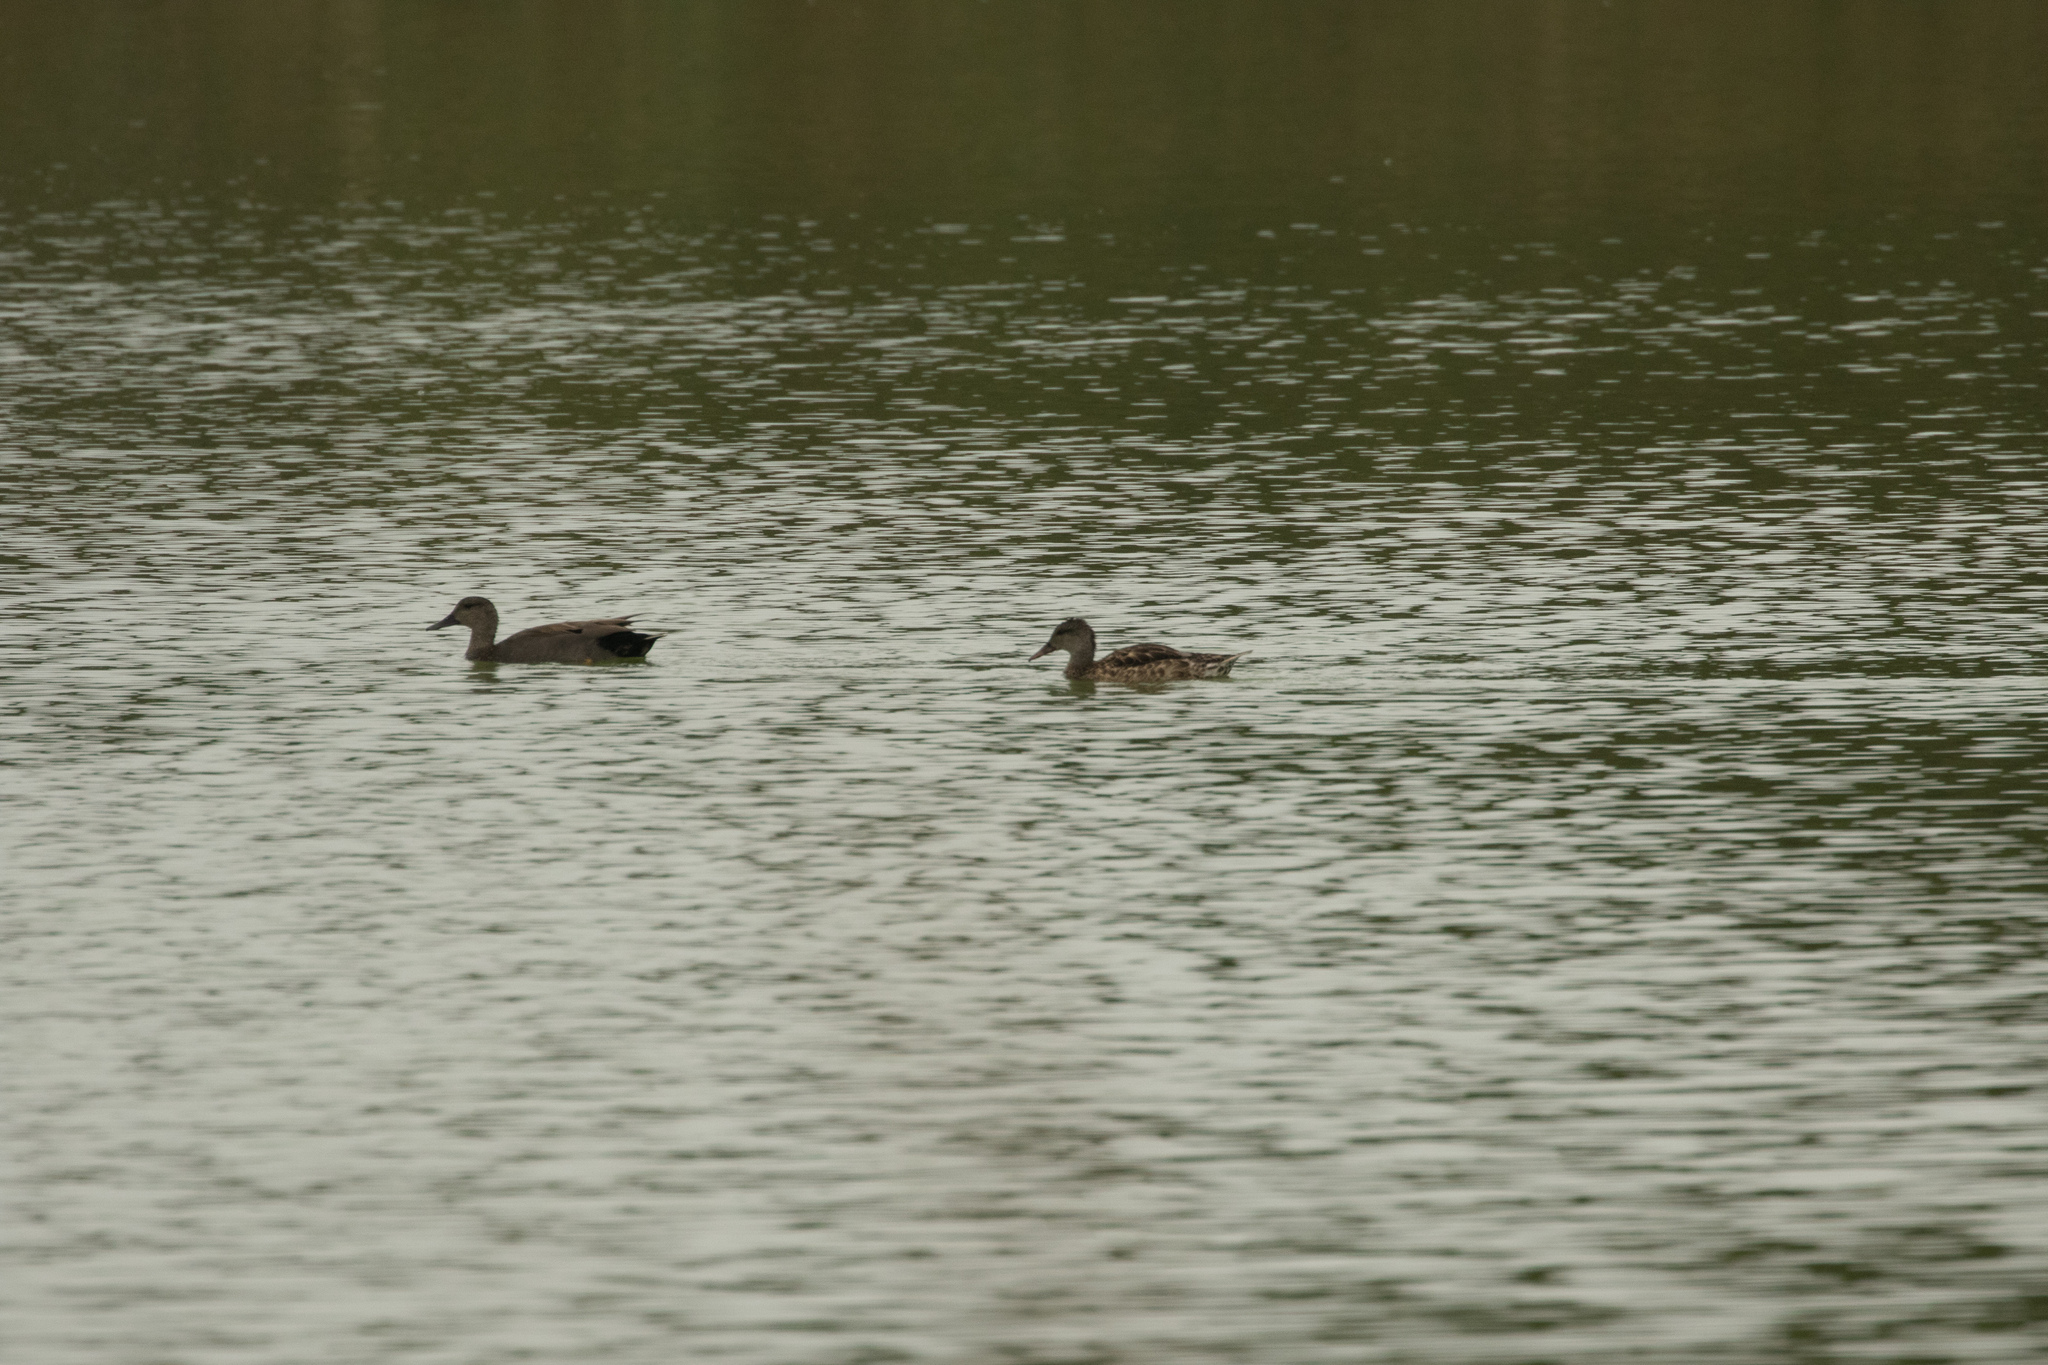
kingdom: Animalia
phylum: Chordata
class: Aves
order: Anseriformes
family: Anatidae
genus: Mareca
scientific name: Mareca strepera
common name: Gadwall
